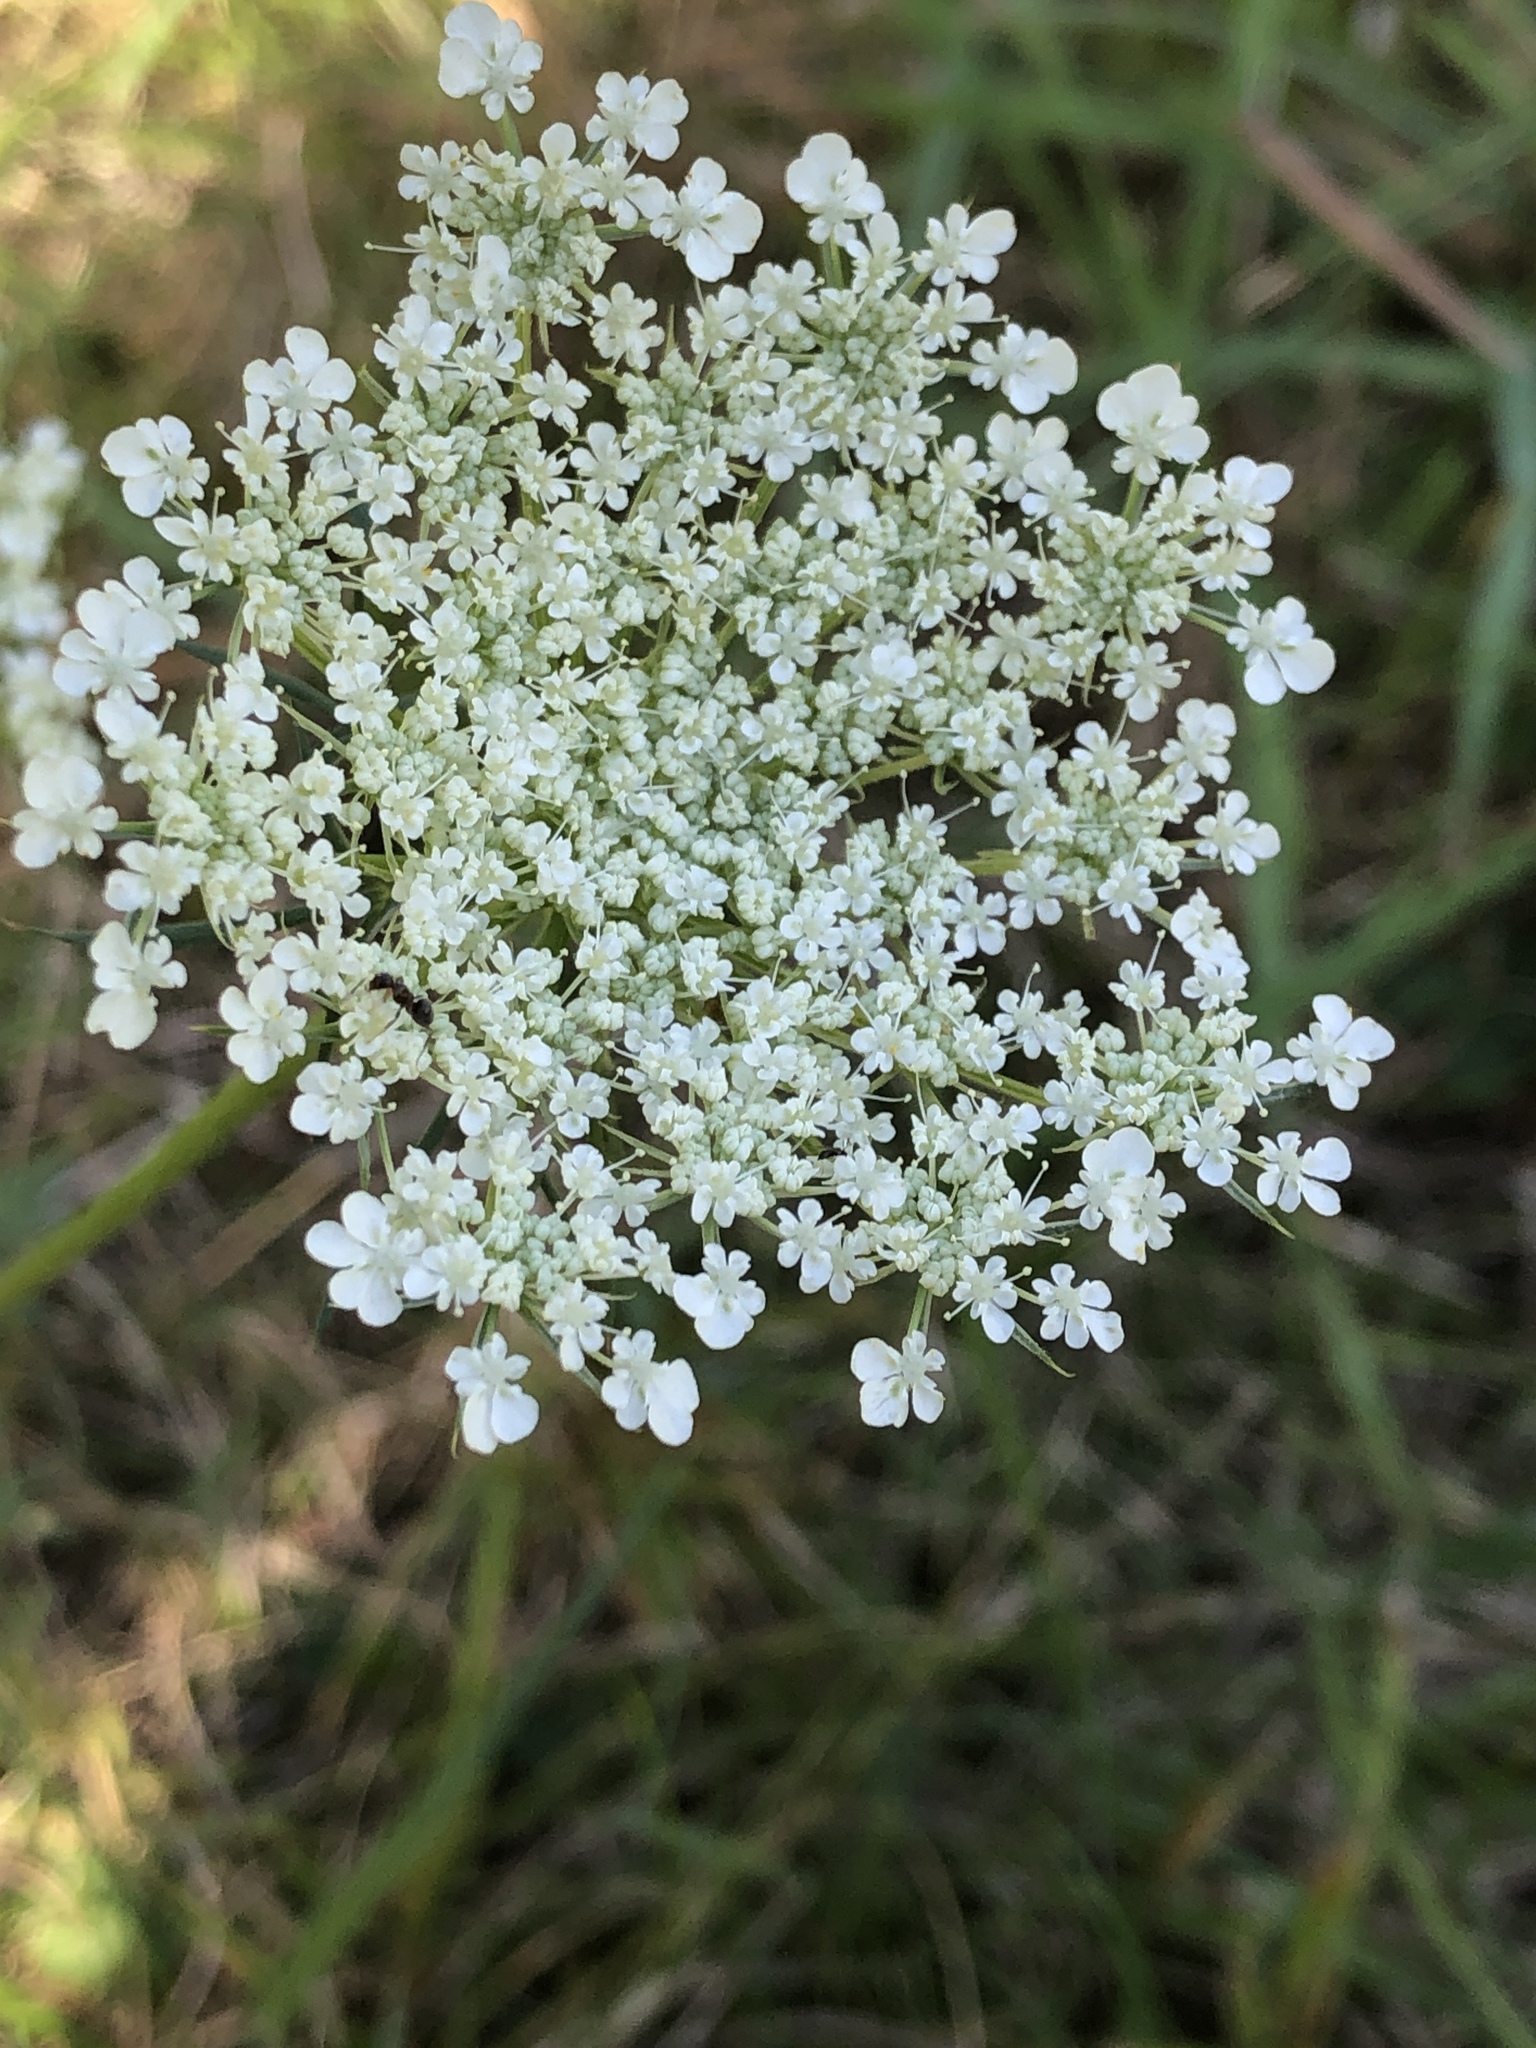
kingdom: Plantae
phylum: Tracheophyta
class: Magnoliopsida
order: Apiales
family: Apiaceae
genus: Daucus
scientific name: Daucus carota
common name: Wild carrot
